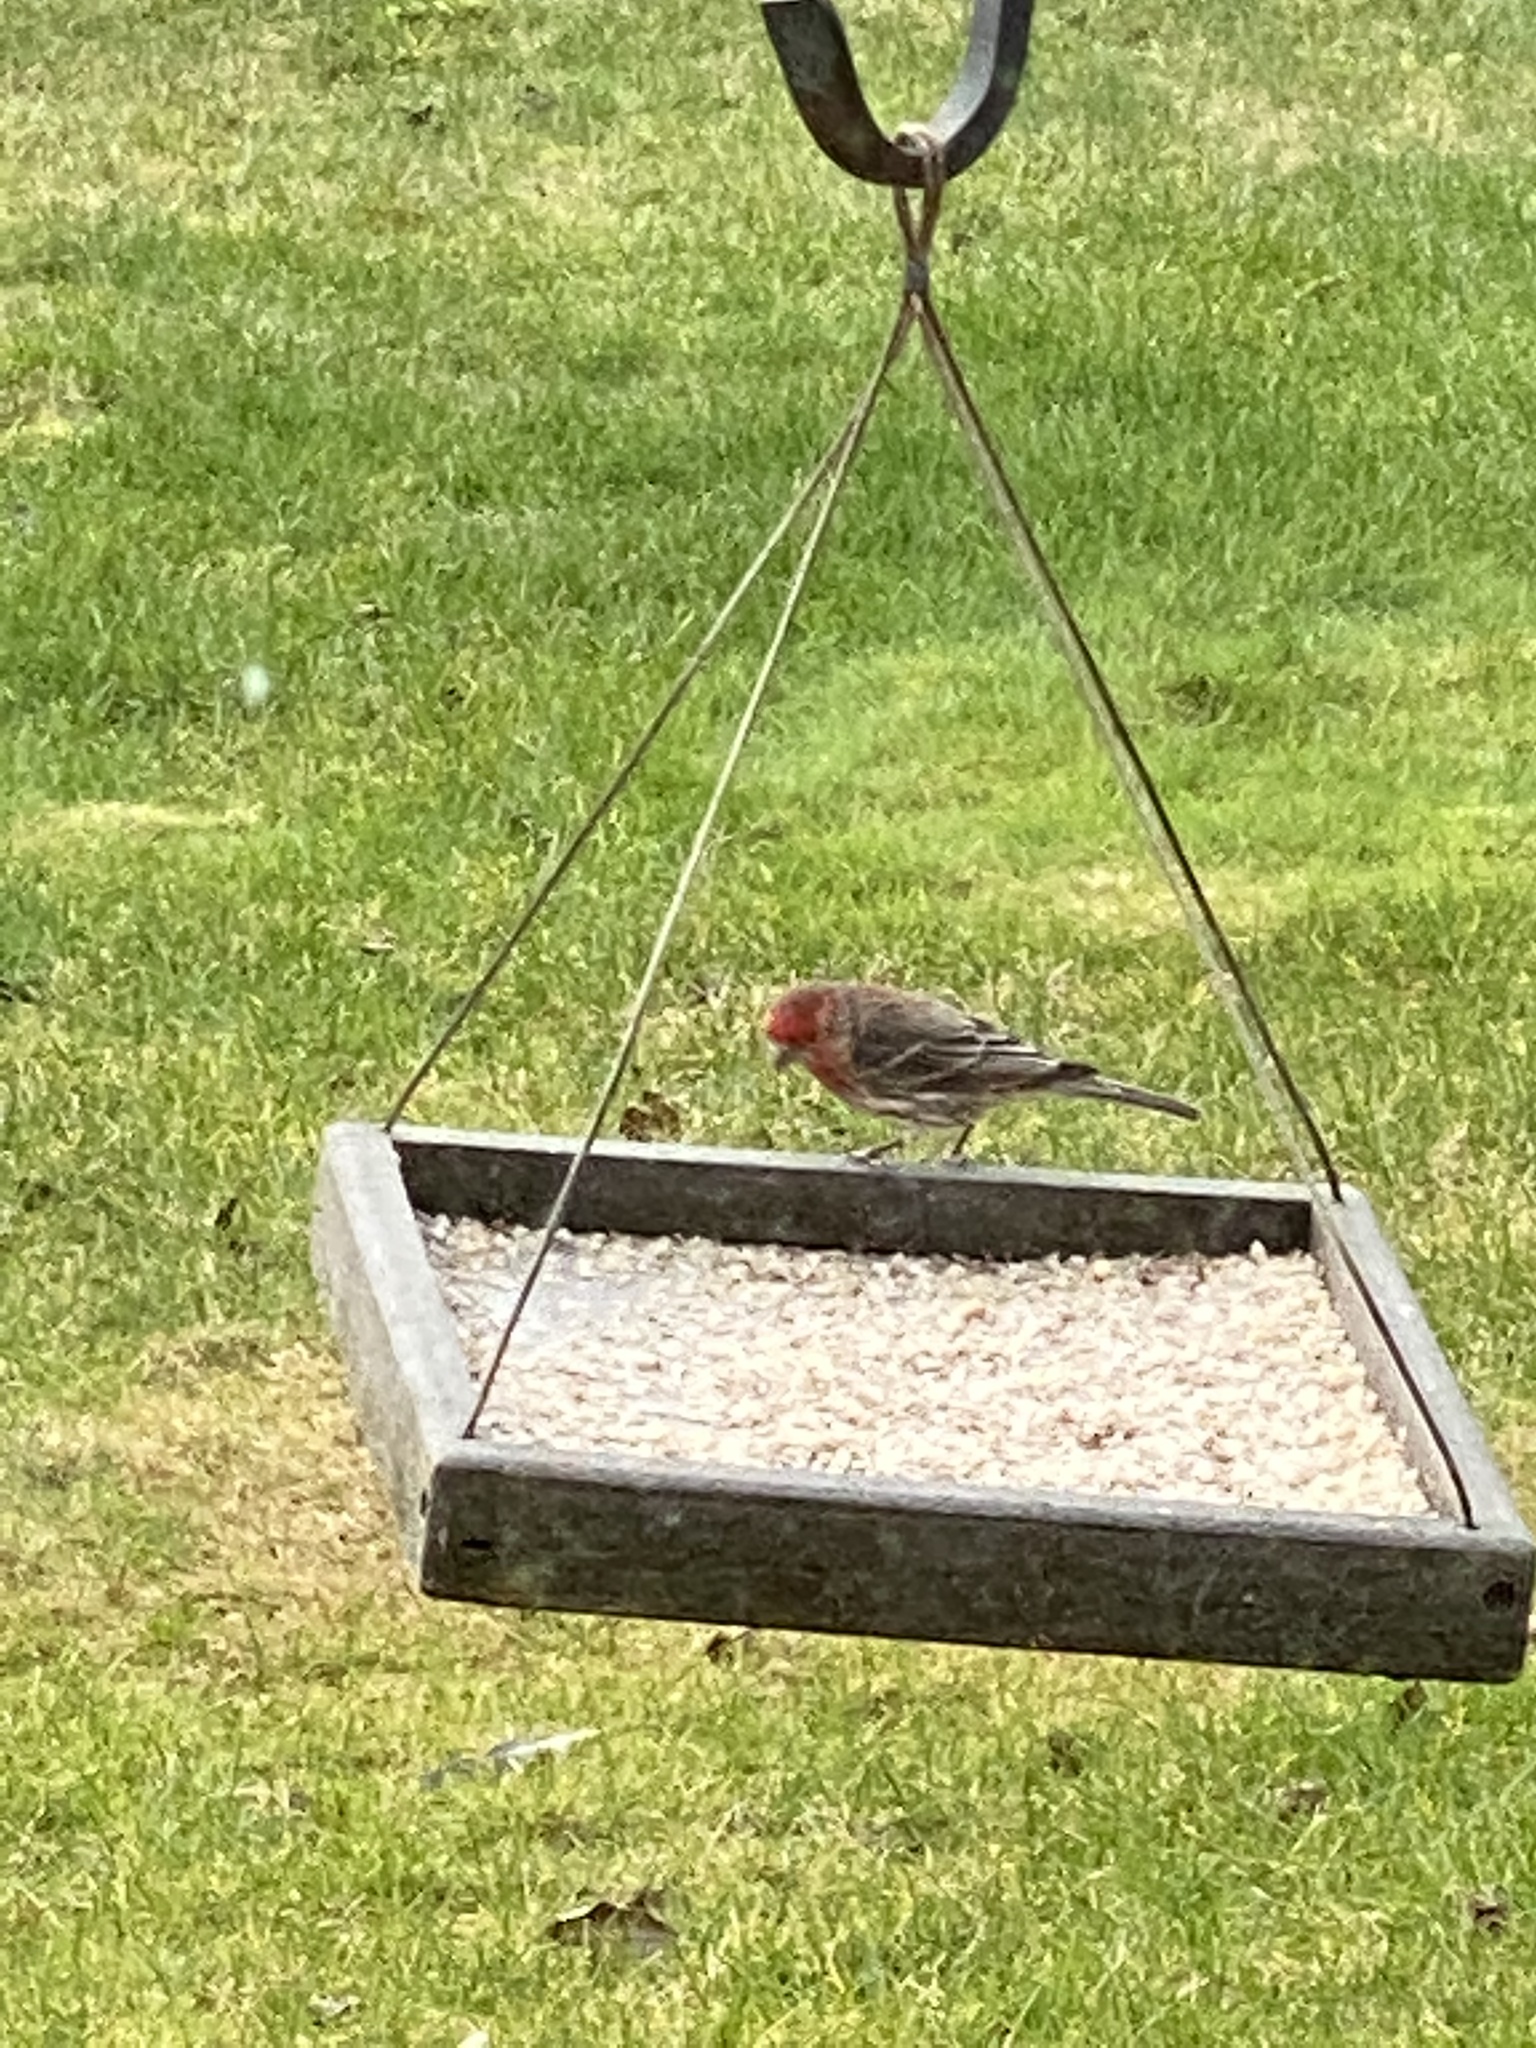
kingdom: Animalia
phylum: Chordata
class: Aves
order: Passeriformes
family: Fringillidae
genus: Haemorhous
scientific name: Haemorhous mexicanus
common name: House finch
